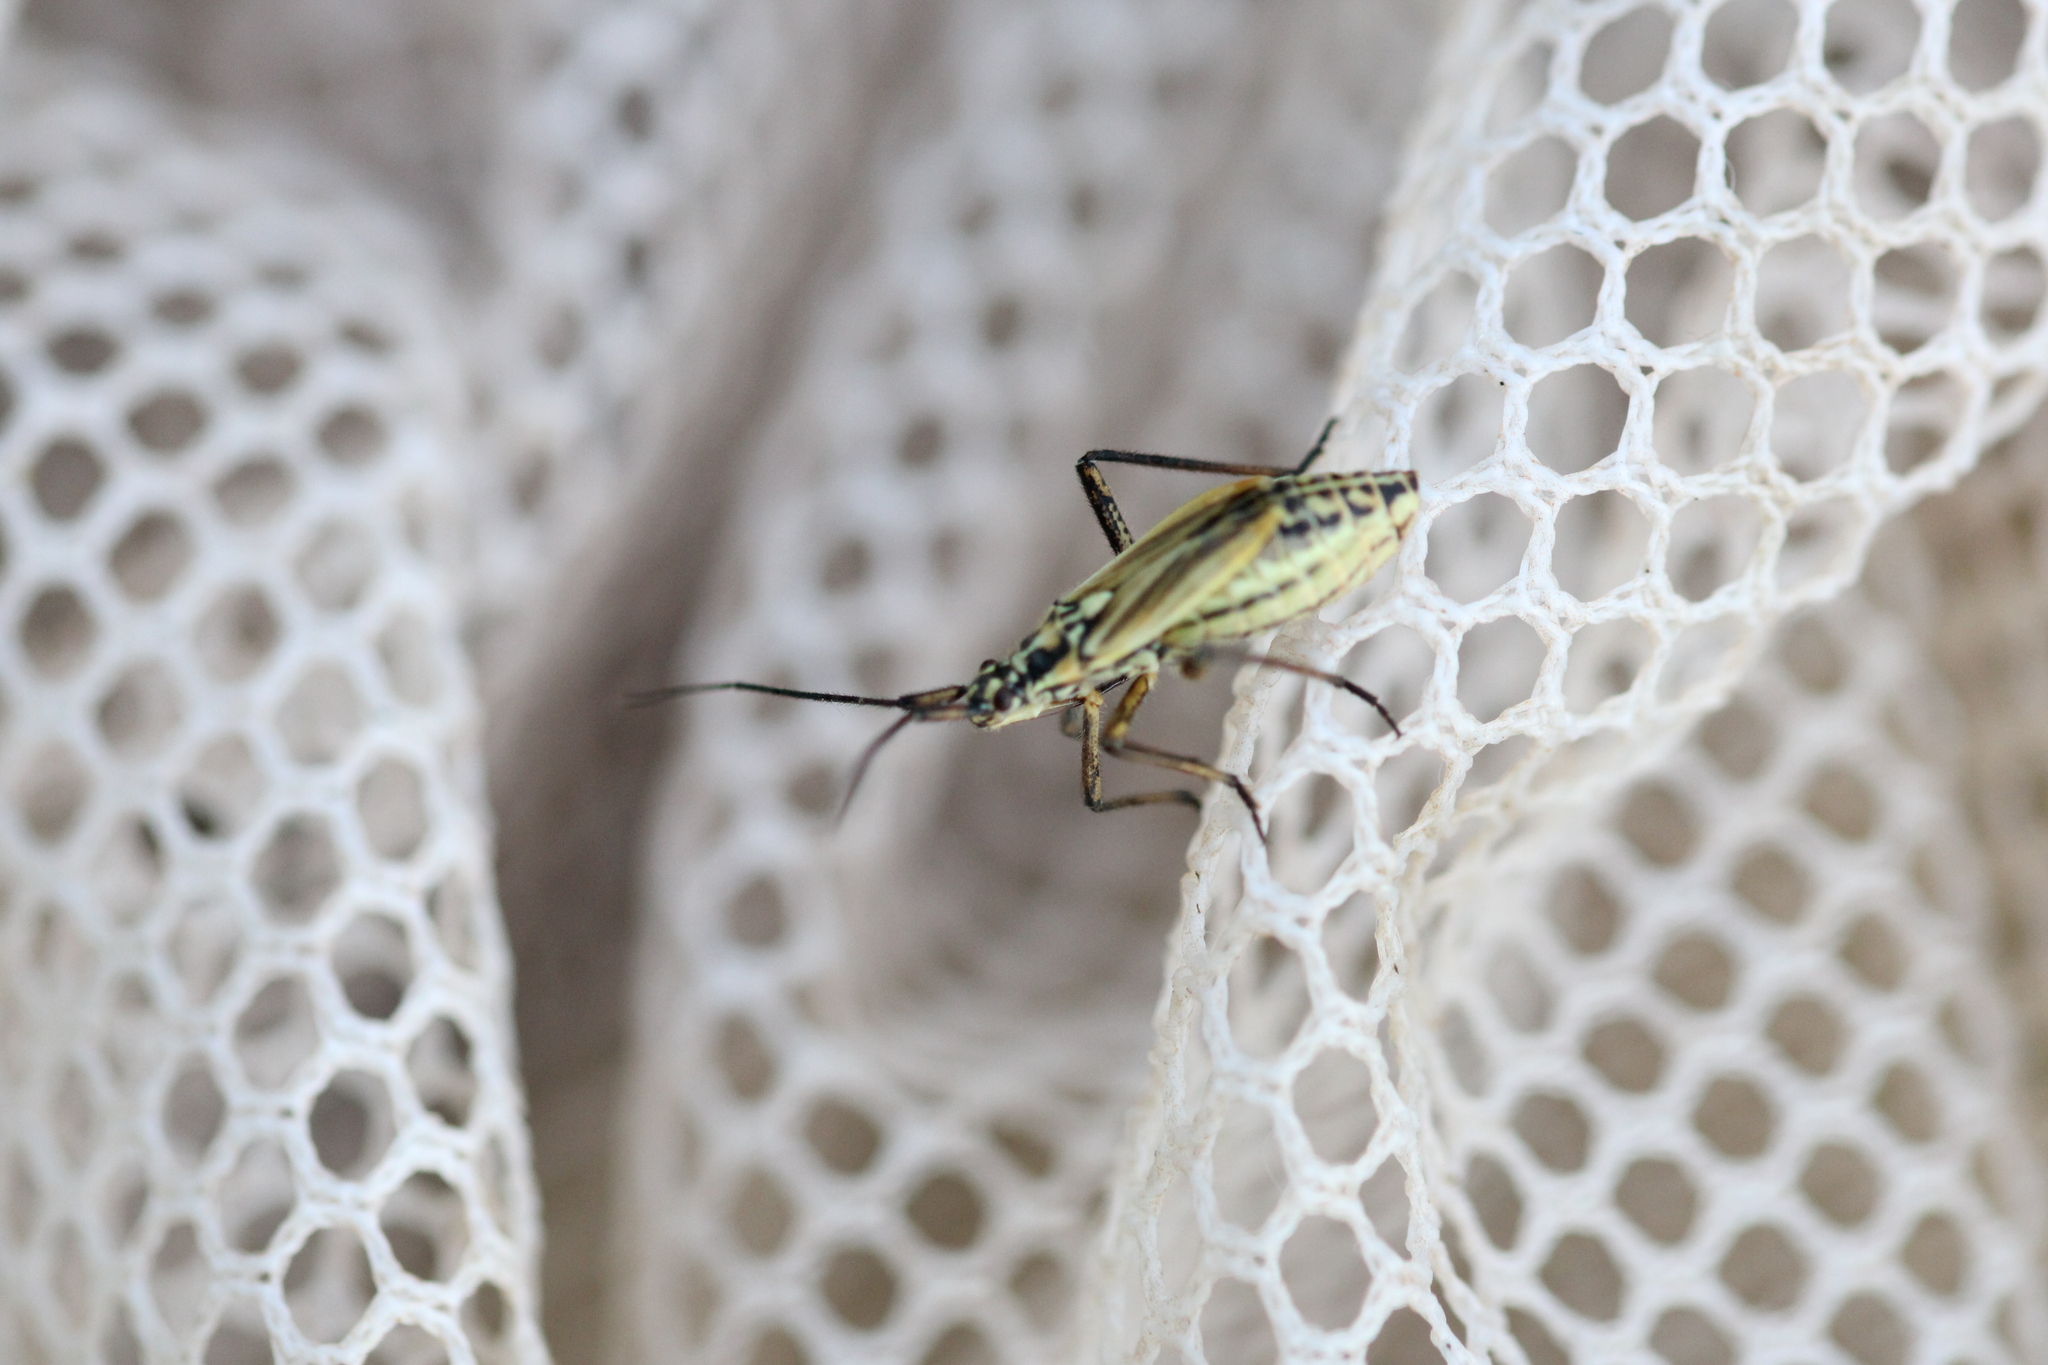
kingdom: Animalia
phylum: Arthropoda
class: Insecta
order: Hemiptera
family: Miridae
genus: Leptopterna
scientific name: Leptopterna dolabrata
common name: Meadow plant bug
